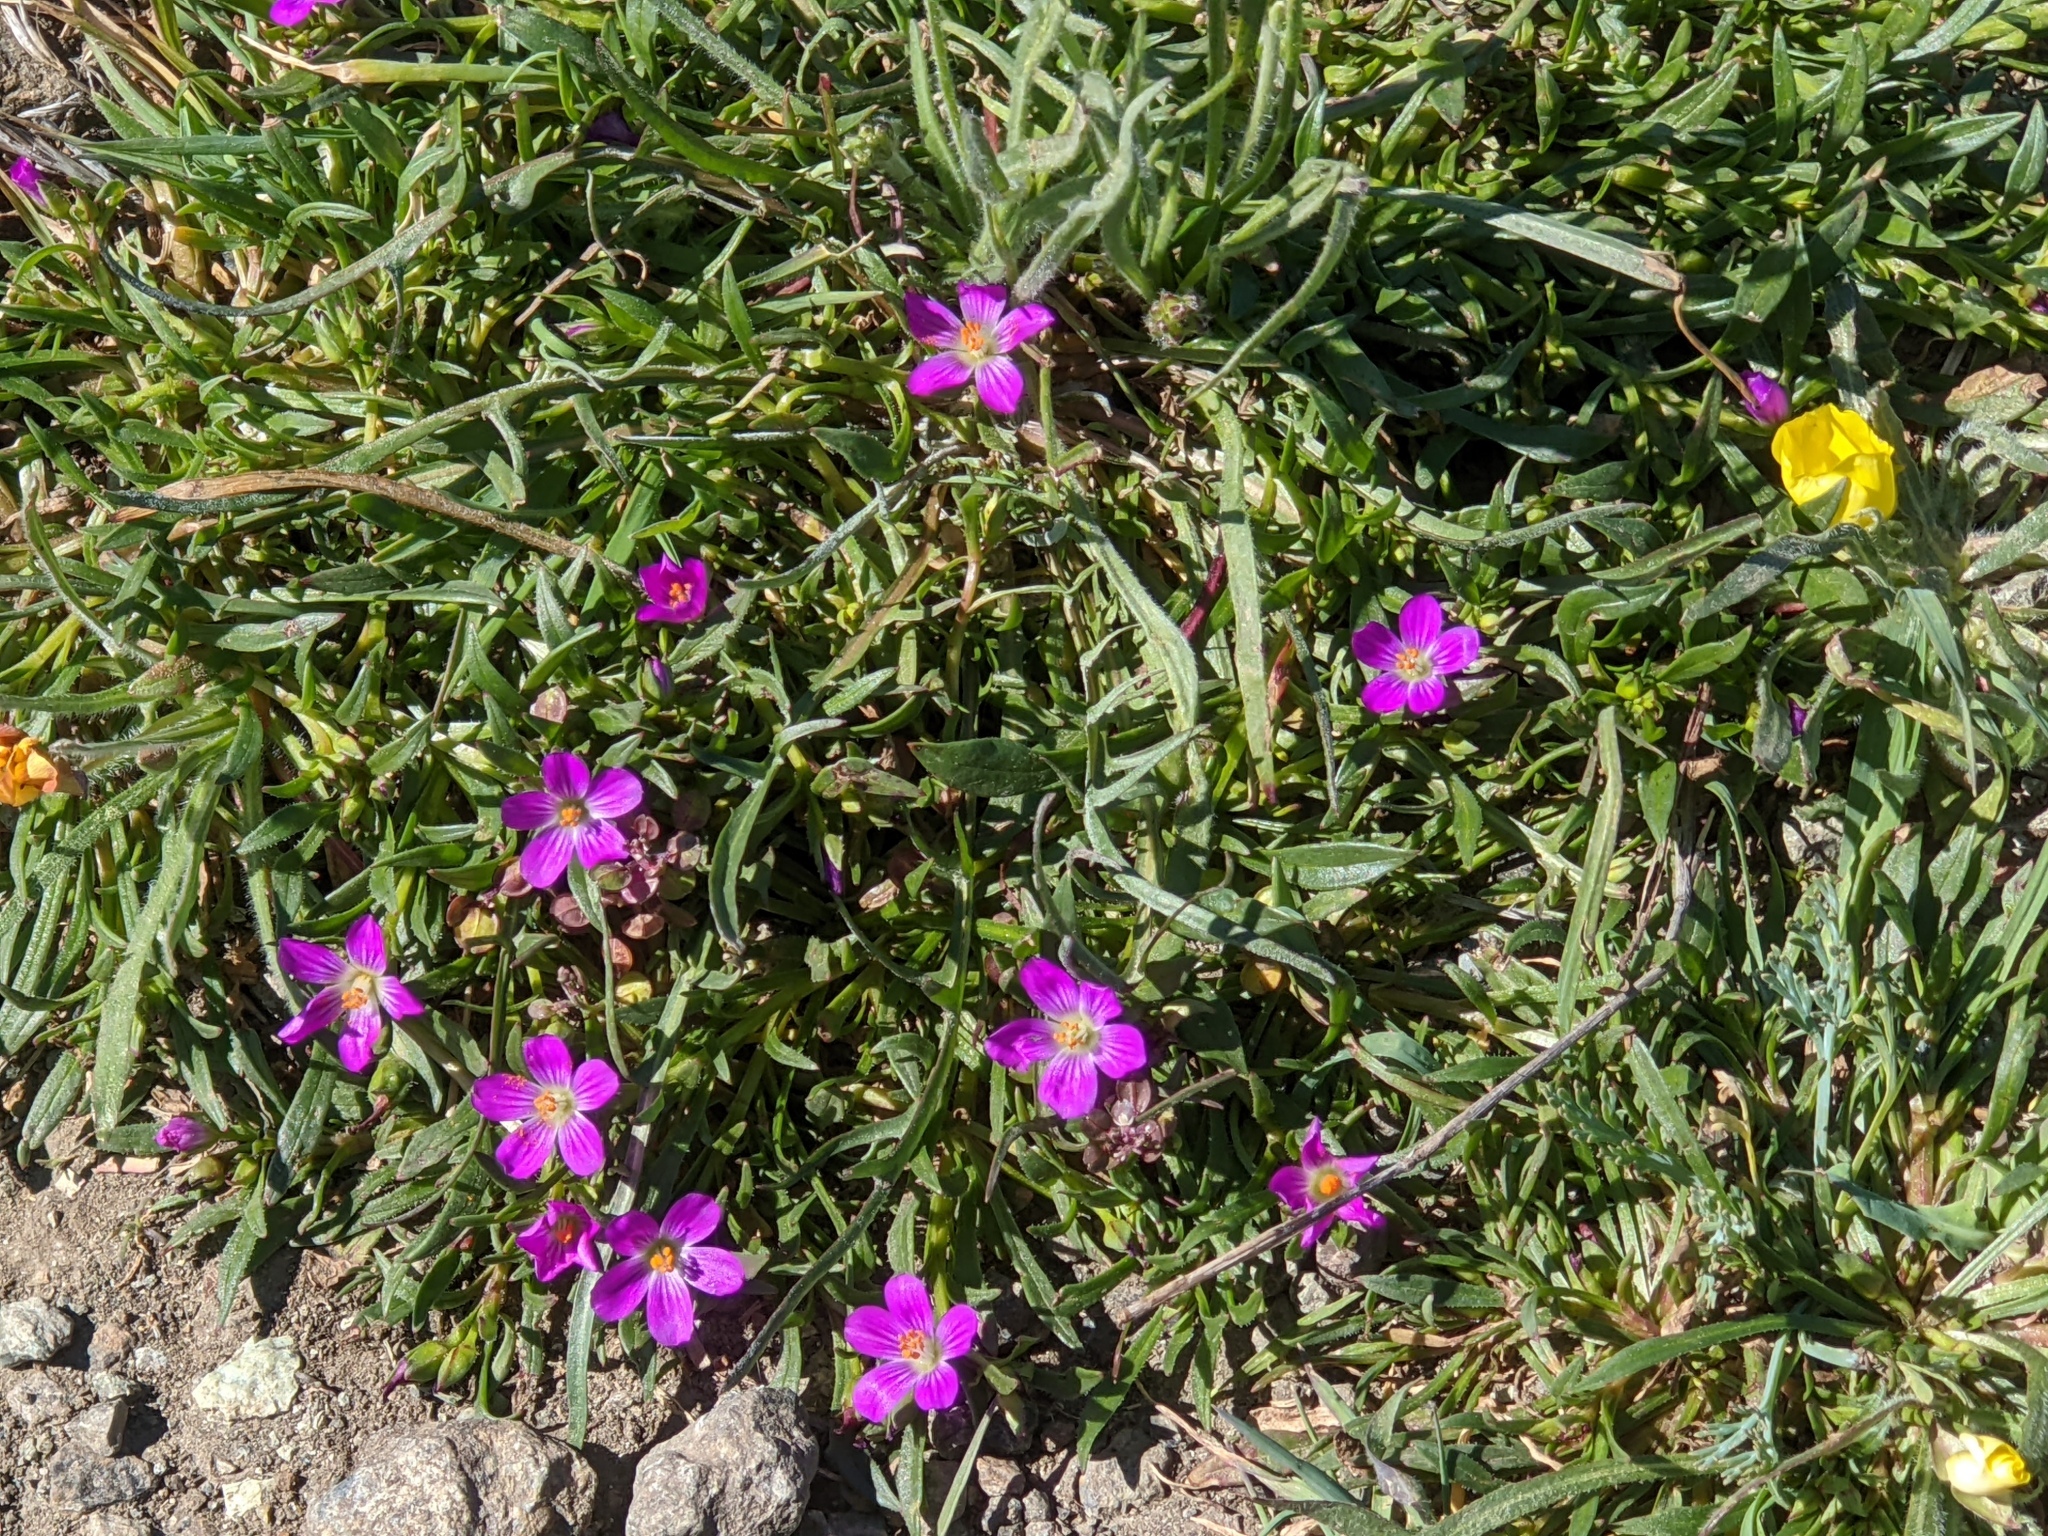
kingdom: Plantae
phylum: Tracheophyta
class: Magnoliopsida
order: Caryophyllales
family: Montiaceae
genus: Calandrinia
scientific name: Calandrinia menziesii
